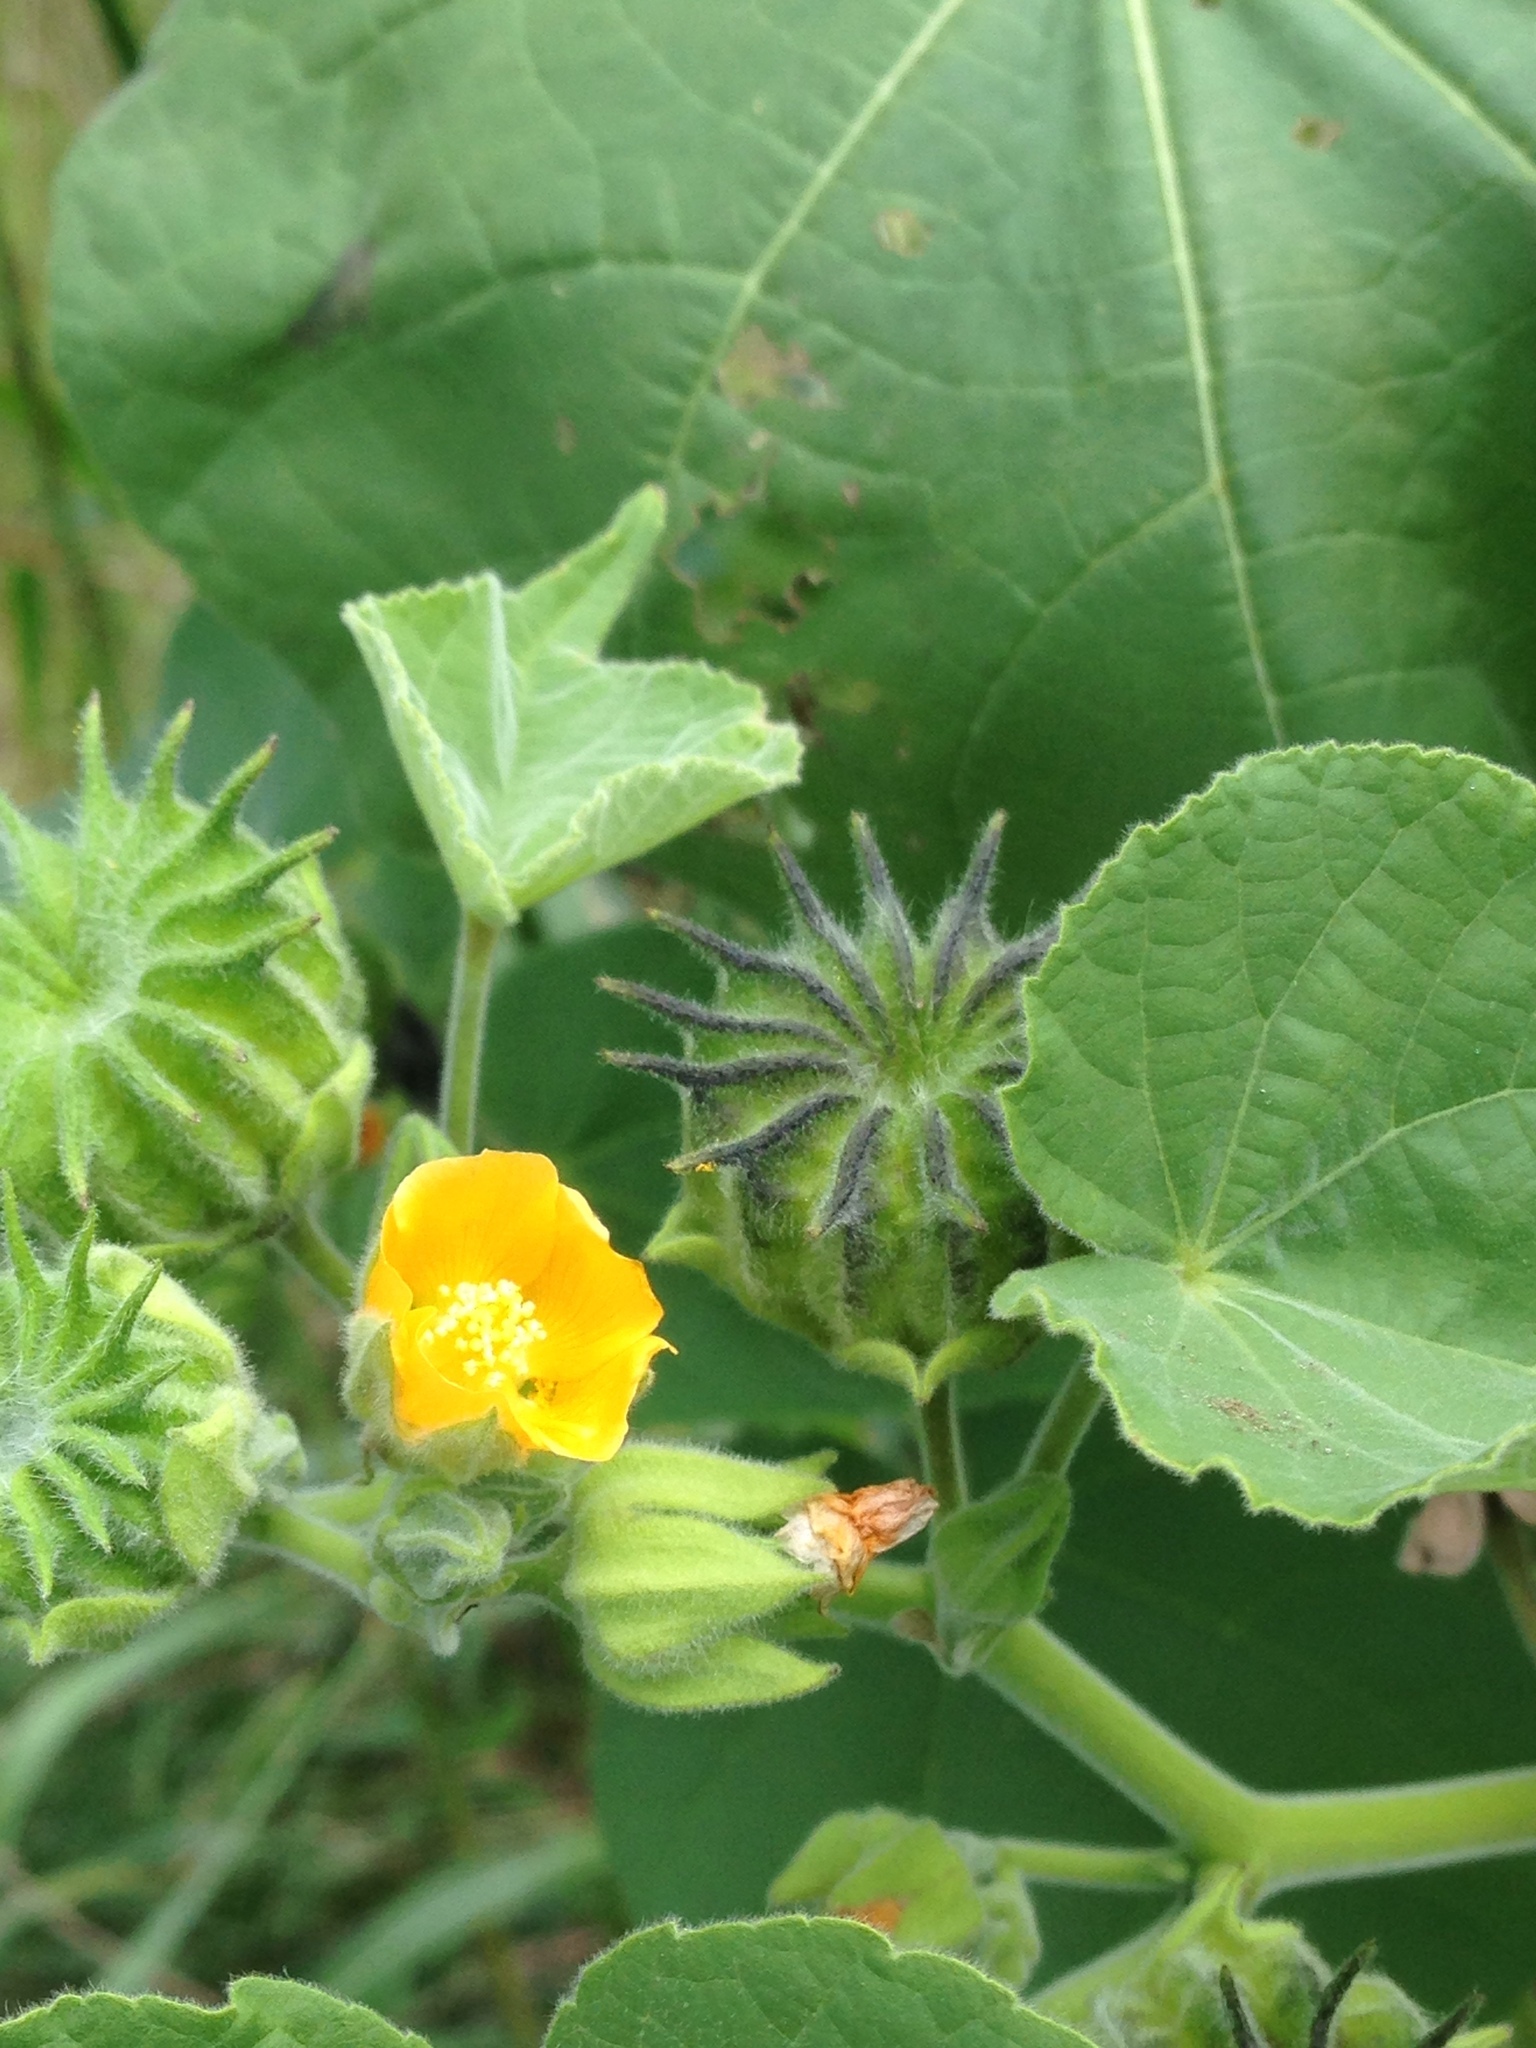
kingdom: Plantae
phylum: Tracheophyta
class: Magnoliopsida
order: Malvales
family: Malvaceae
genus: Abutilon
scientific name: Abutilon theophrasti
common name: Velvetleaf
